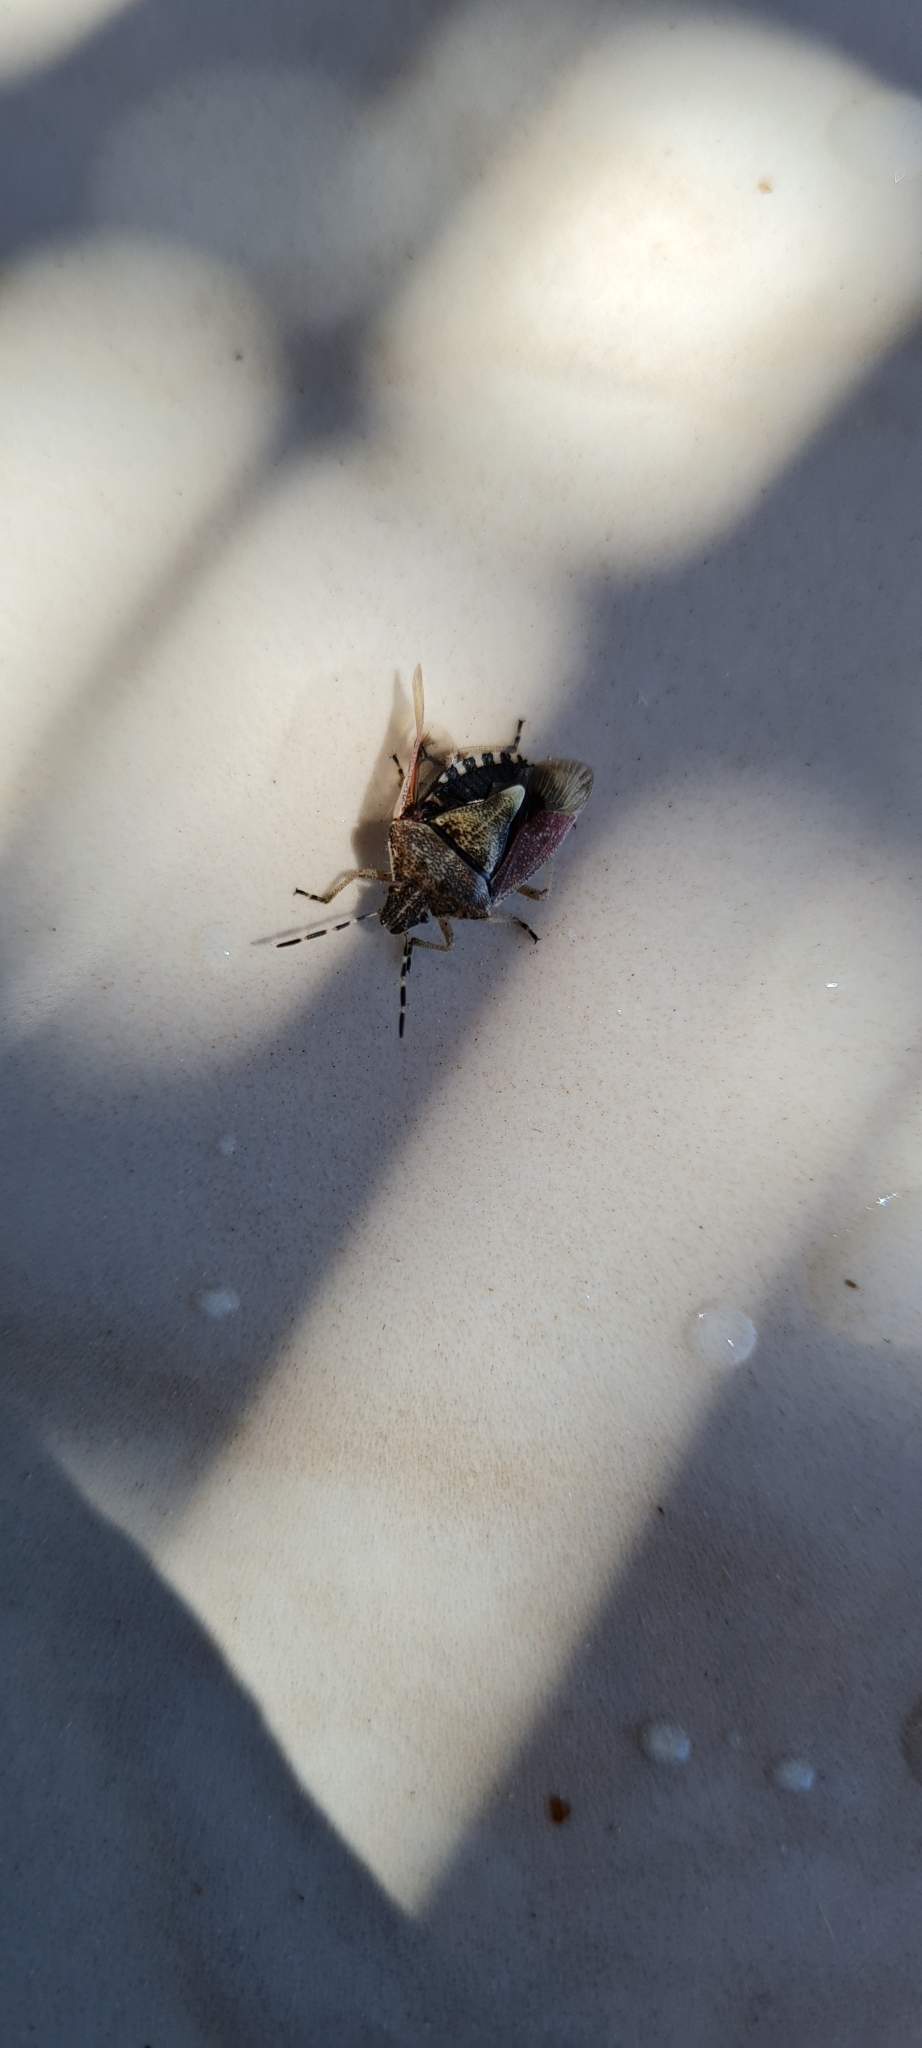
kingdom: Animalia
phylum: Arthropoda
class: Insecta
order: Hemiptera
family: Pentatomidae
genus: Dolycoris
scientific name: Dolycoris baccarum
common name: Sloe bug
